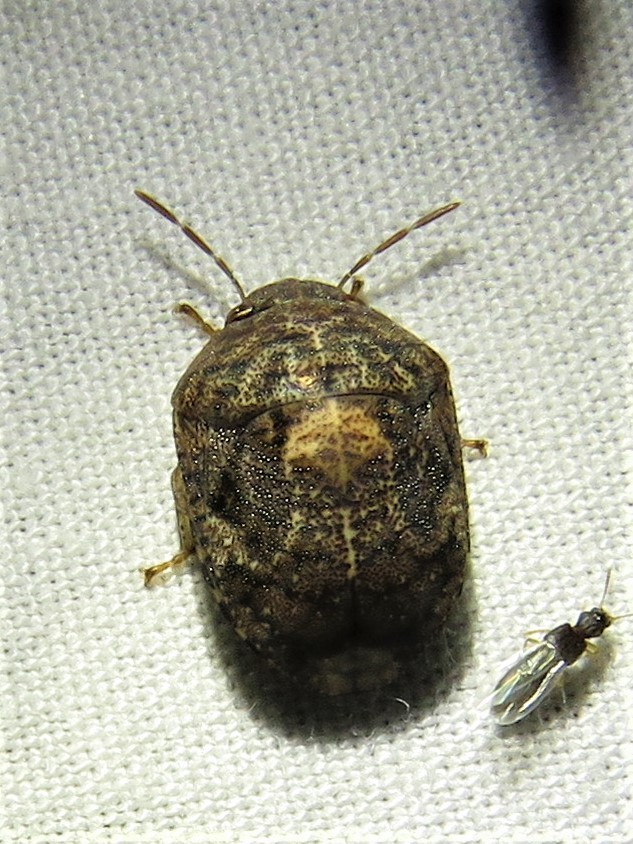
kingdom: Animalia
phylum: Arthropoda
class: Insecta
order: Hemiptera
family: Scutelleridae
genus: Stethaulax
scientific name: Stethaulax marmoratus
